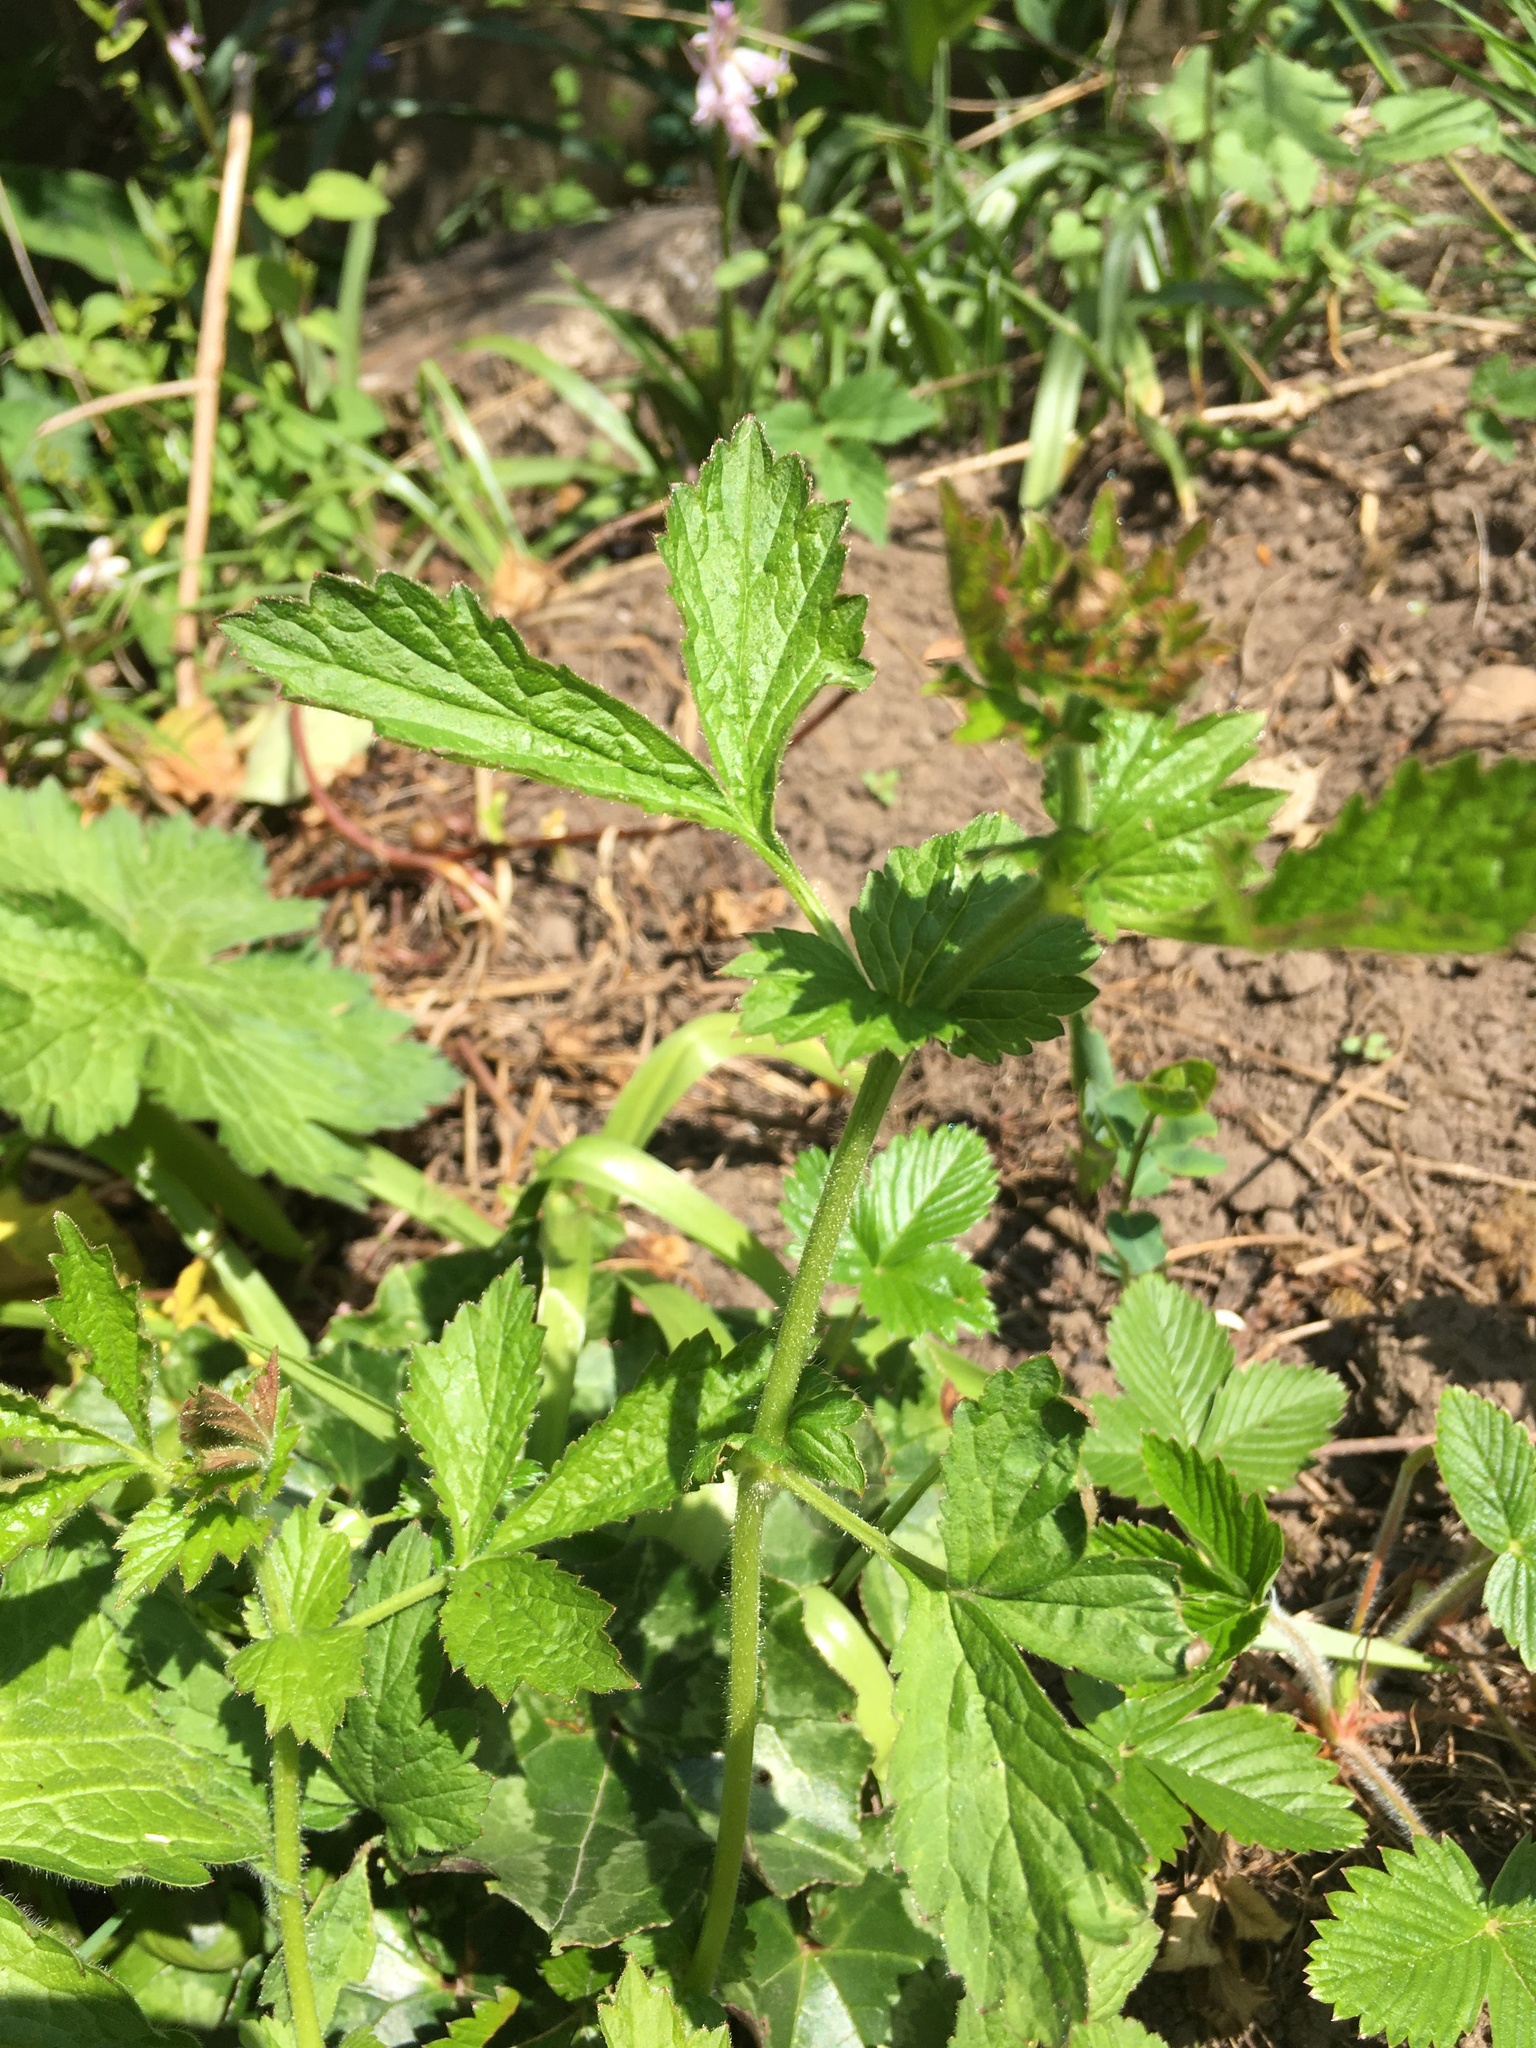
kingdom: Plantae
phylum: Tracheophyta
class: Magnoliopsida
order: Rosales
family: Rosaceae
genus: Geum
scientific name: Geum urbanum
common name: Wood avens
